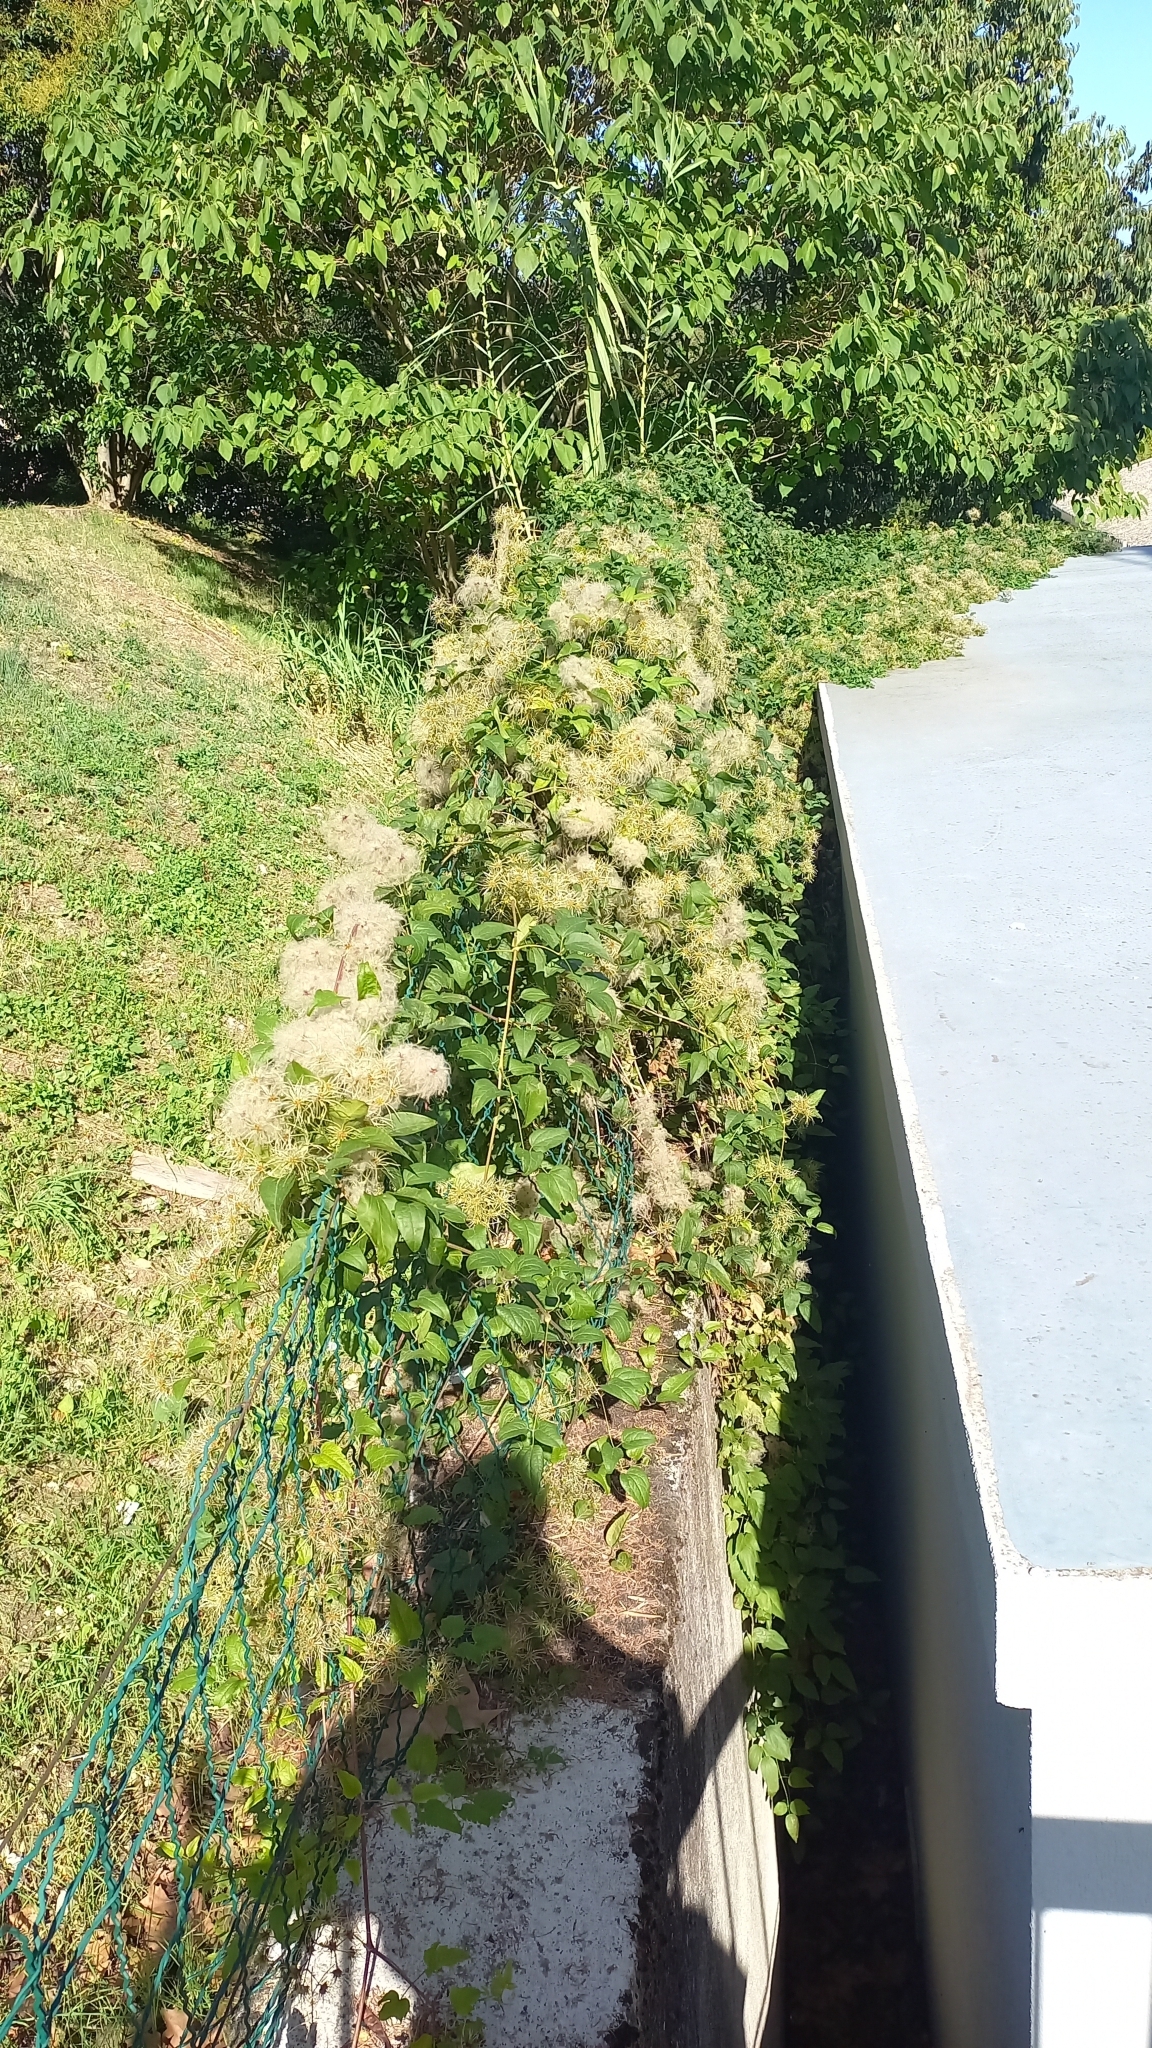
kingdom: Plantae
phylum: Tracheophyta
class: Magnoliopsida
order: Ranunculales
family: Ranunculaceae
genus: Clematis
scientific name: Clematis vitalba
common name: Evergreen clematis
